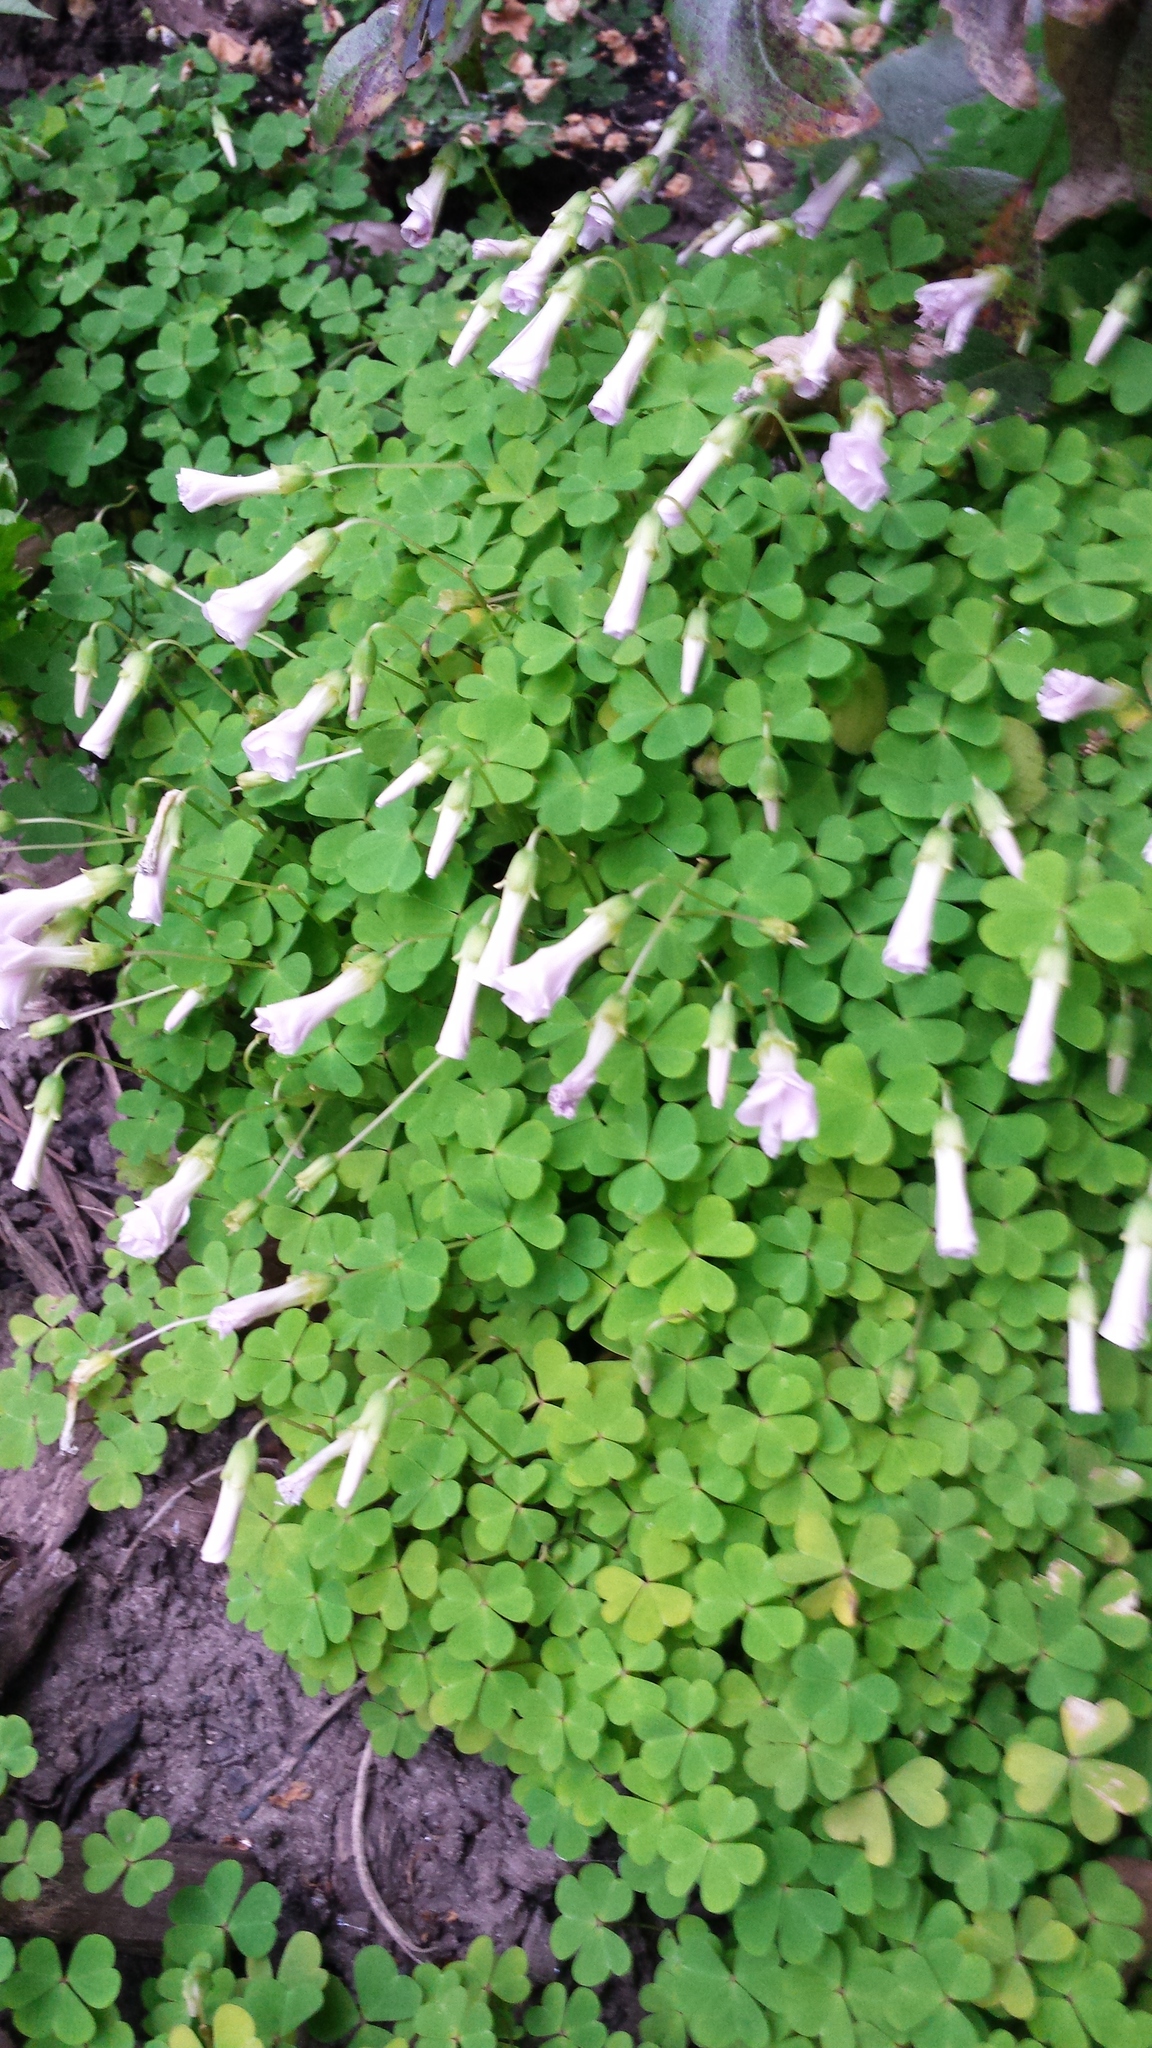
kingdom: Plantae
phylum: Tracheophyta
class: Magnoliopsida
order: Oxalidales
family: Oxalidaceae
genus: Oxalis
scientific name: Oxalis incarnata
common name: Pale pink-sorrel
